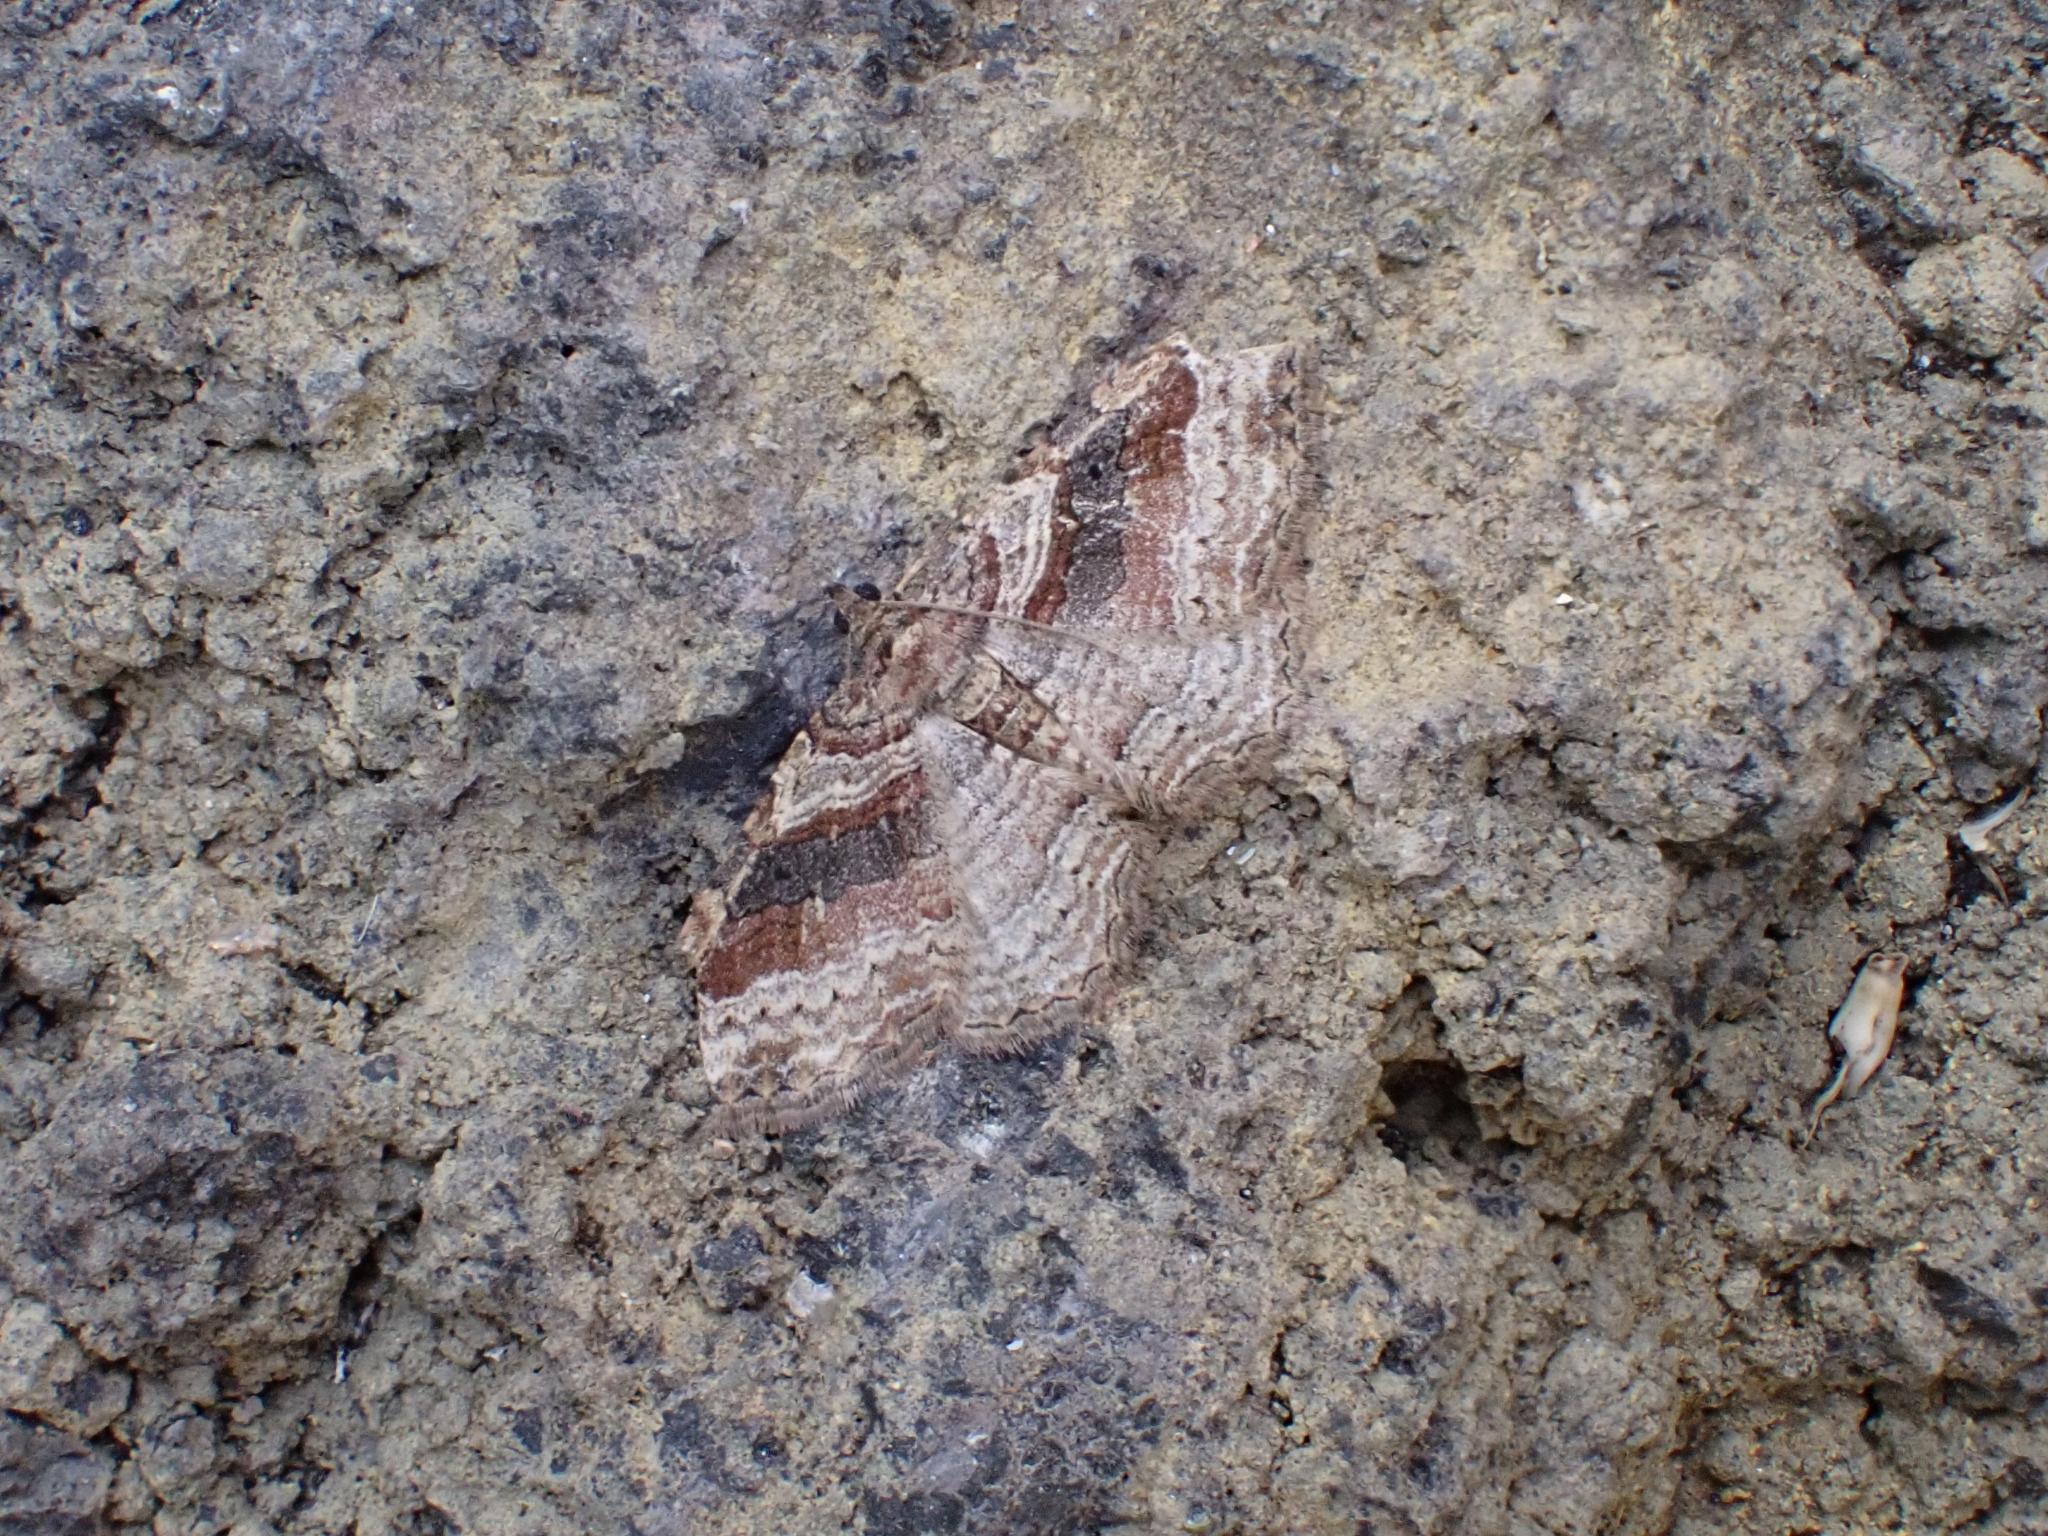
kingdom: Animalia
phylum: Arthropoda
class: Insecta
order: Lepidoptera
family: Geometridae
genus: Costaconvexa
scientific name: Costaconvexa centrostrigaria
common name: Bent-line carpet
